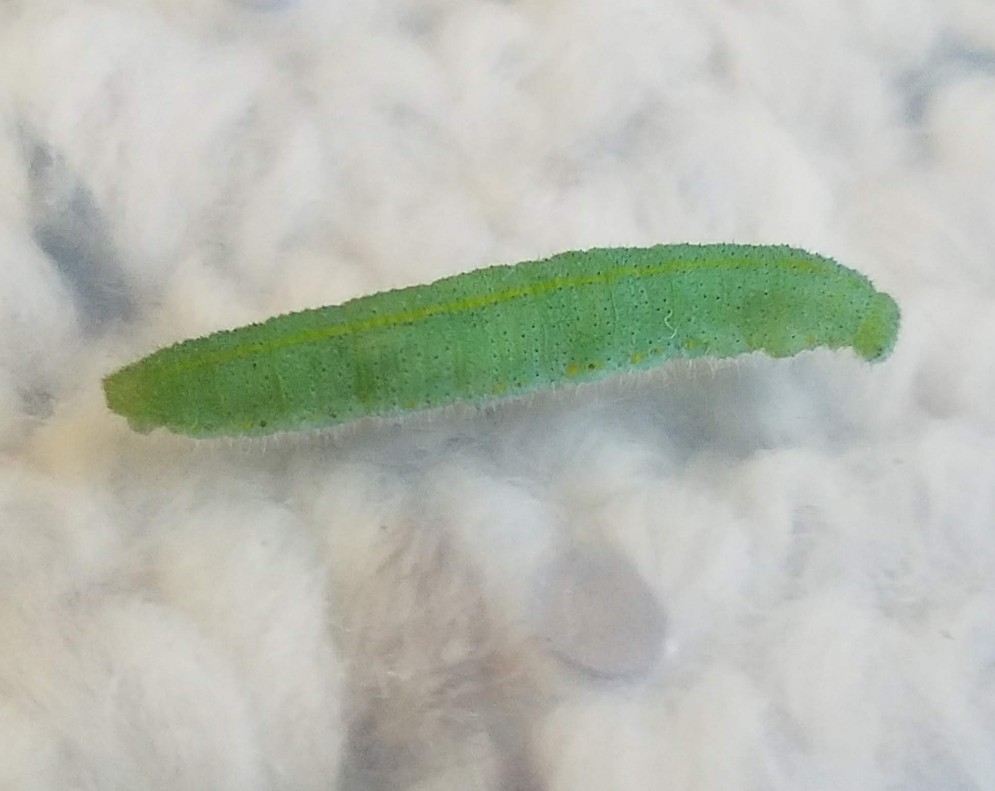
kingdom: Animalia
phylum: Arthropoda
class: Insecta
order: Lepidoptera
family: Pieridae
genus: Pieris
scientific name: Pieris rapae
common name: Small white
